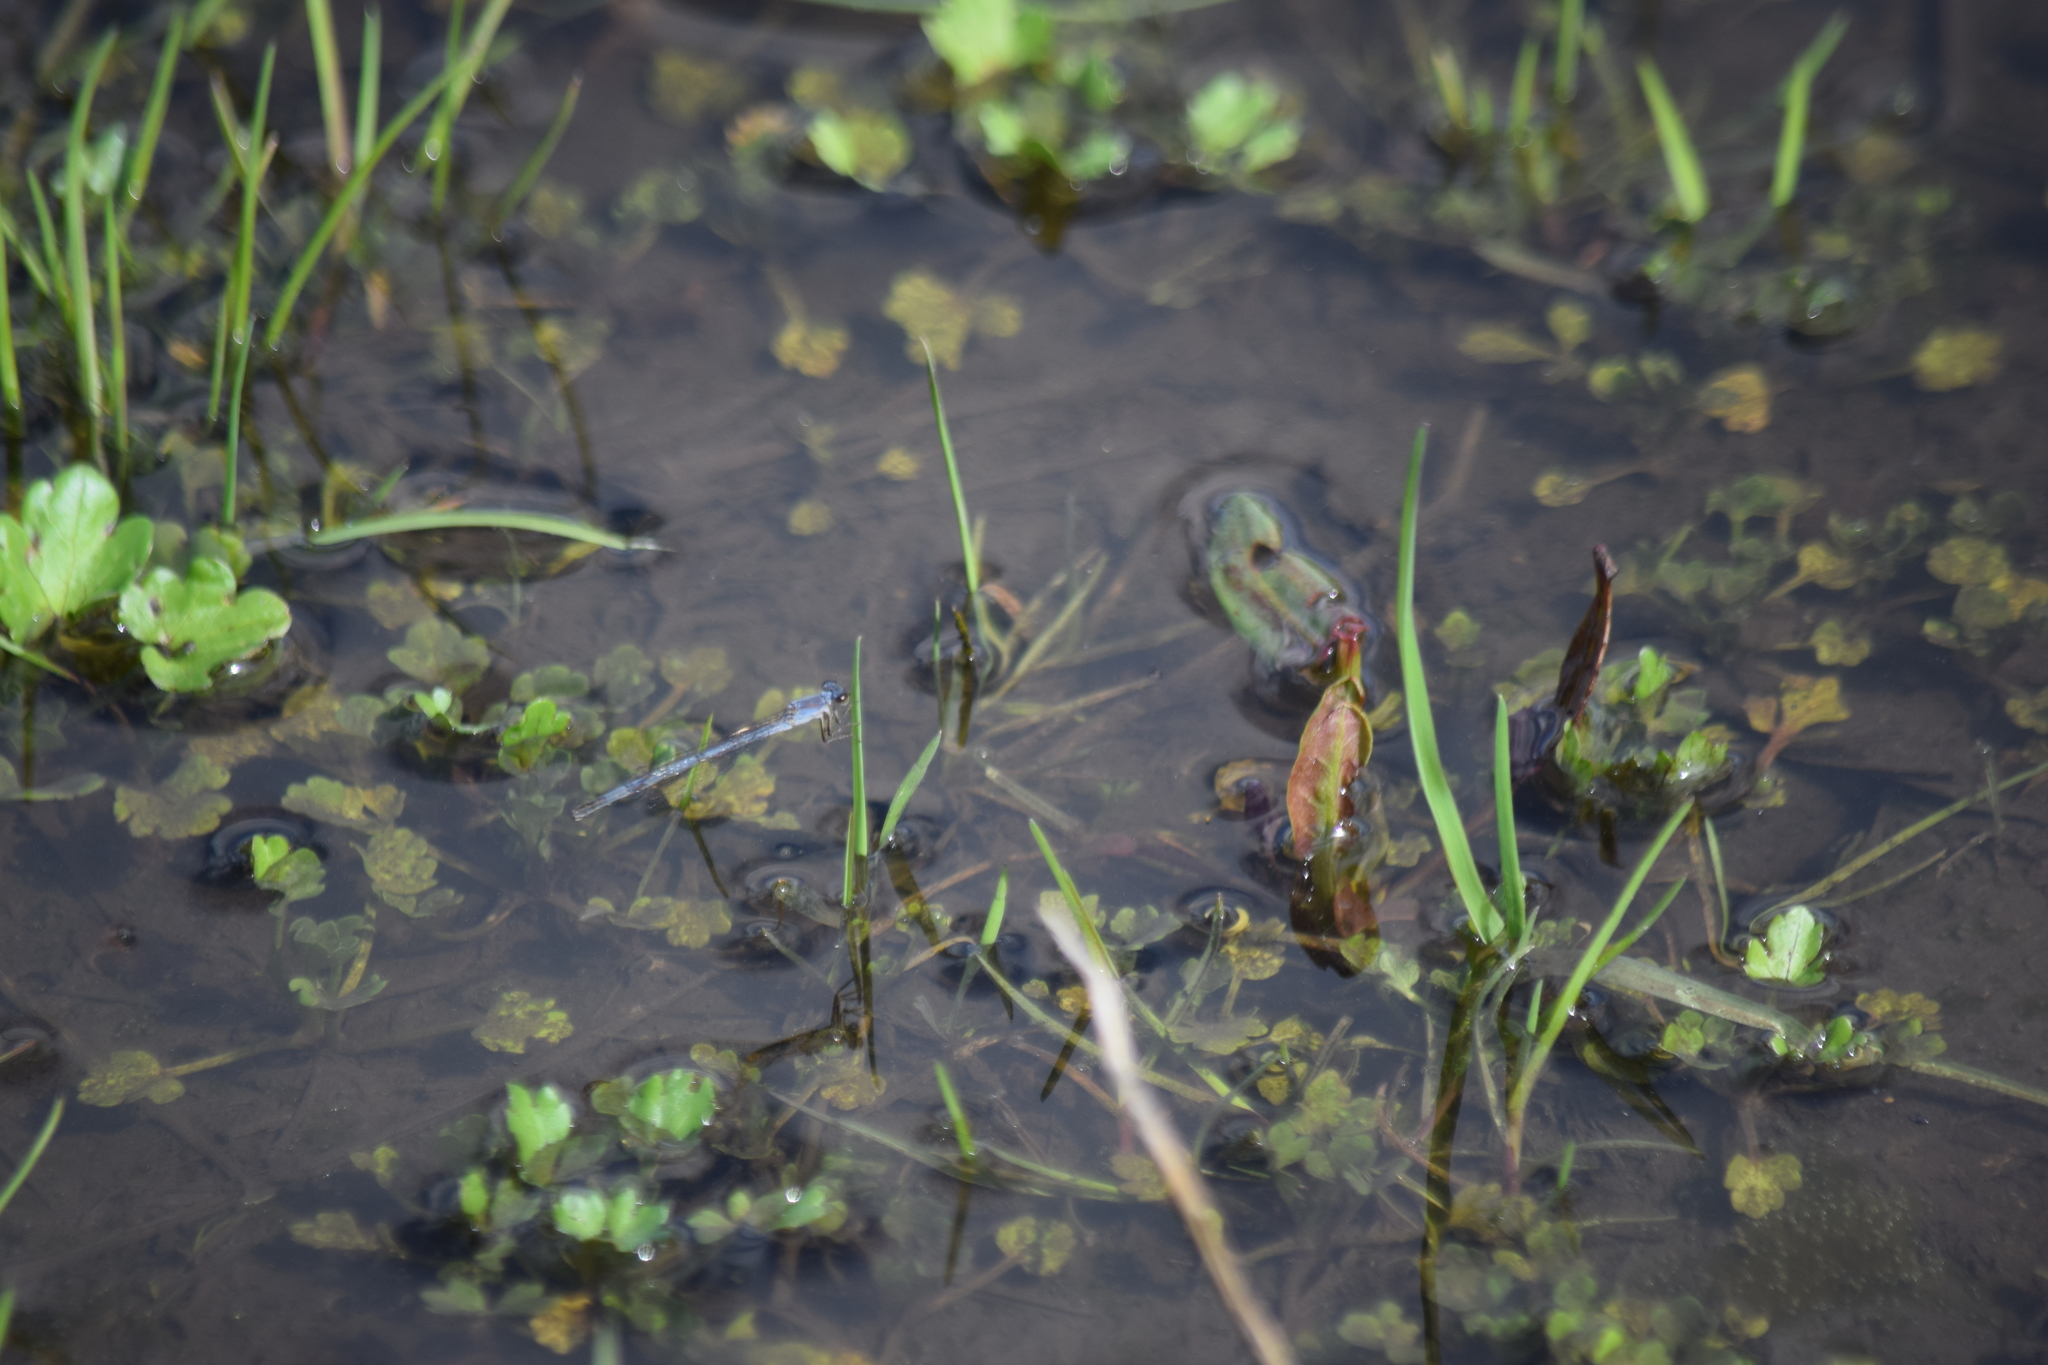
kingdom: Animalia
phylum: Arthropoda
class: Insecta
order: Odonata
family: Coenagrionidae
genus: Ischnura
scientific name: Ischnura posita
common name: Fragile forktail
